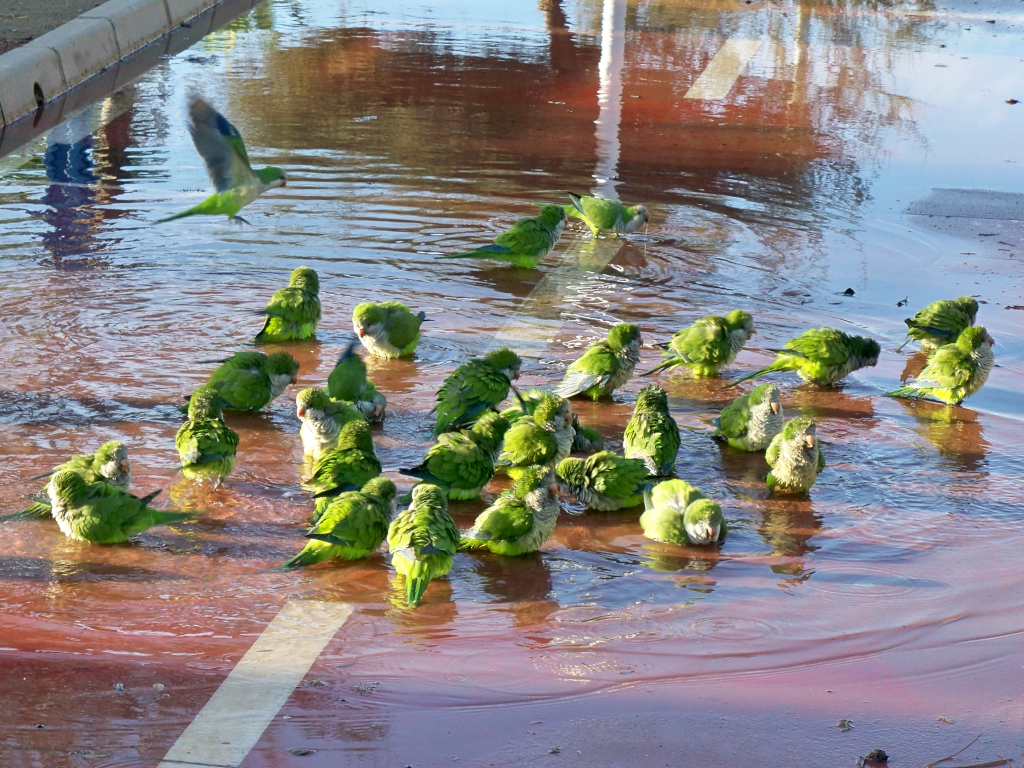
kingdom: Animalia
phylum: Chordata
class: Aves
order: Psittaciformes
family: Psittacidae
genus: Myiopsitta
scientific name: Myiopsitta monachus
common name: Monk parakeet
